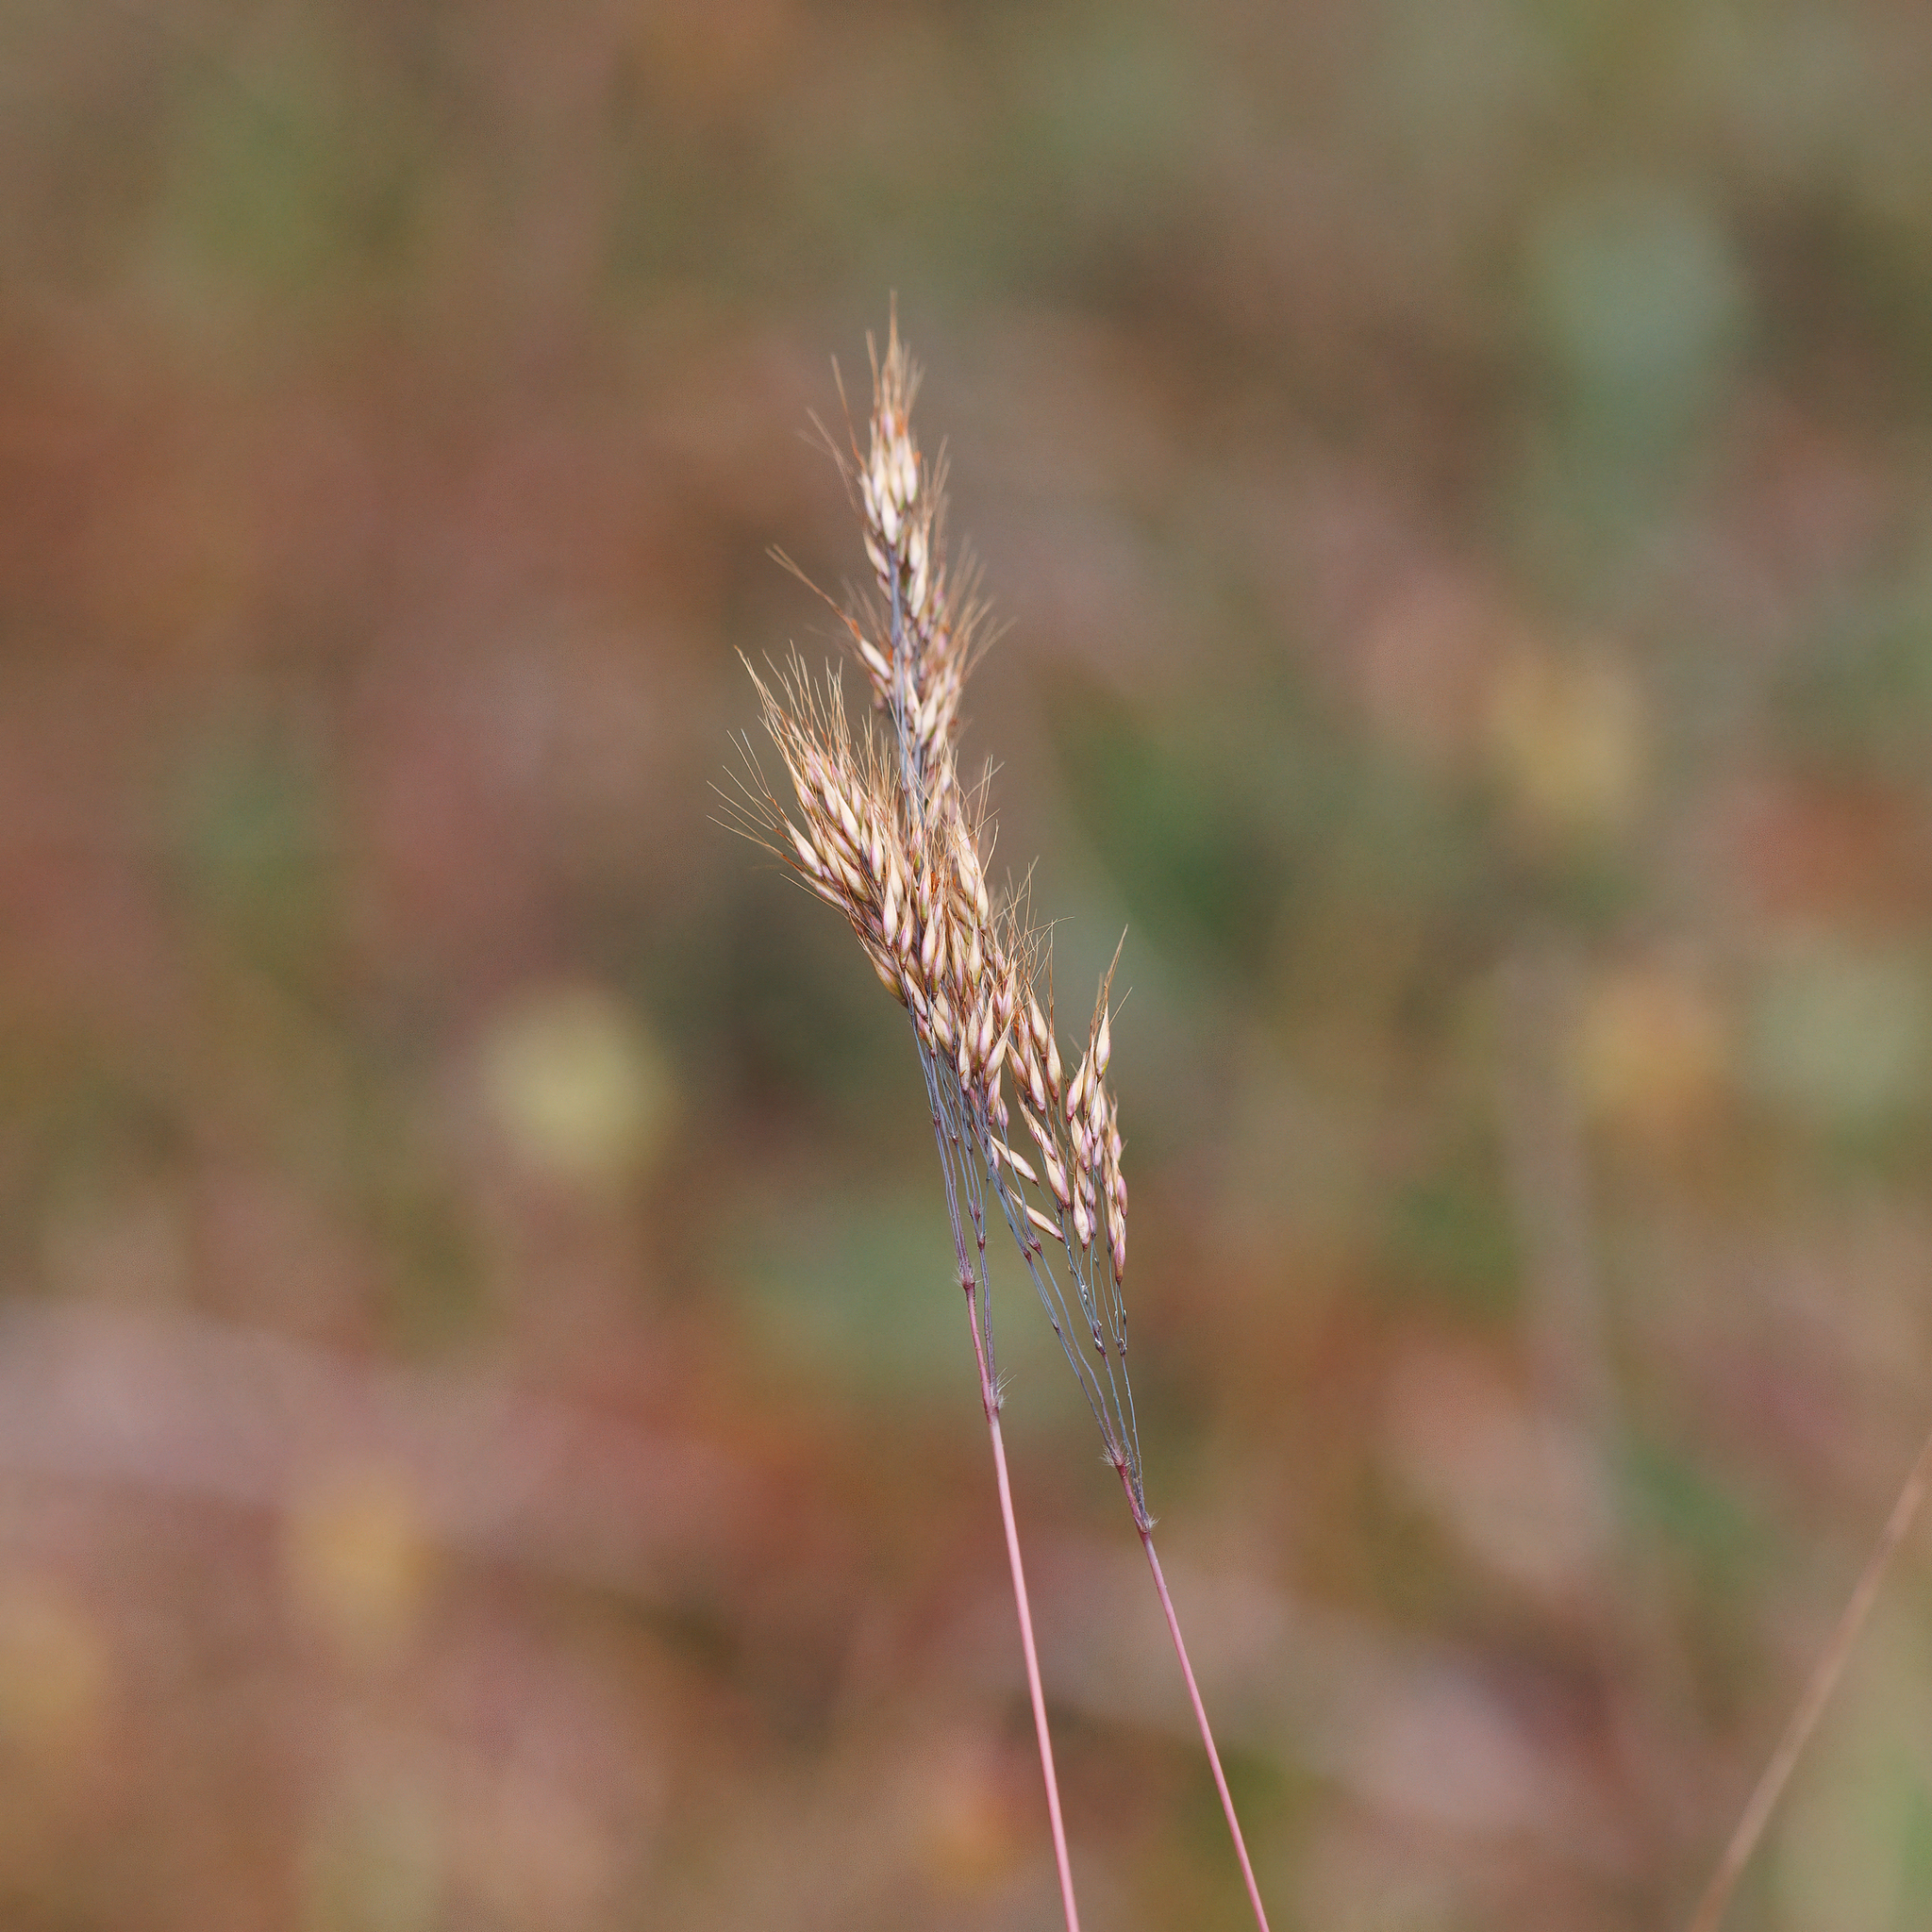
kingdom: Plantae
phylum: Tracheophyta
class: Liliopsida
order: Poales
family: Poaceae
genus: Pentameris
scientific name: Pentameris pallida
